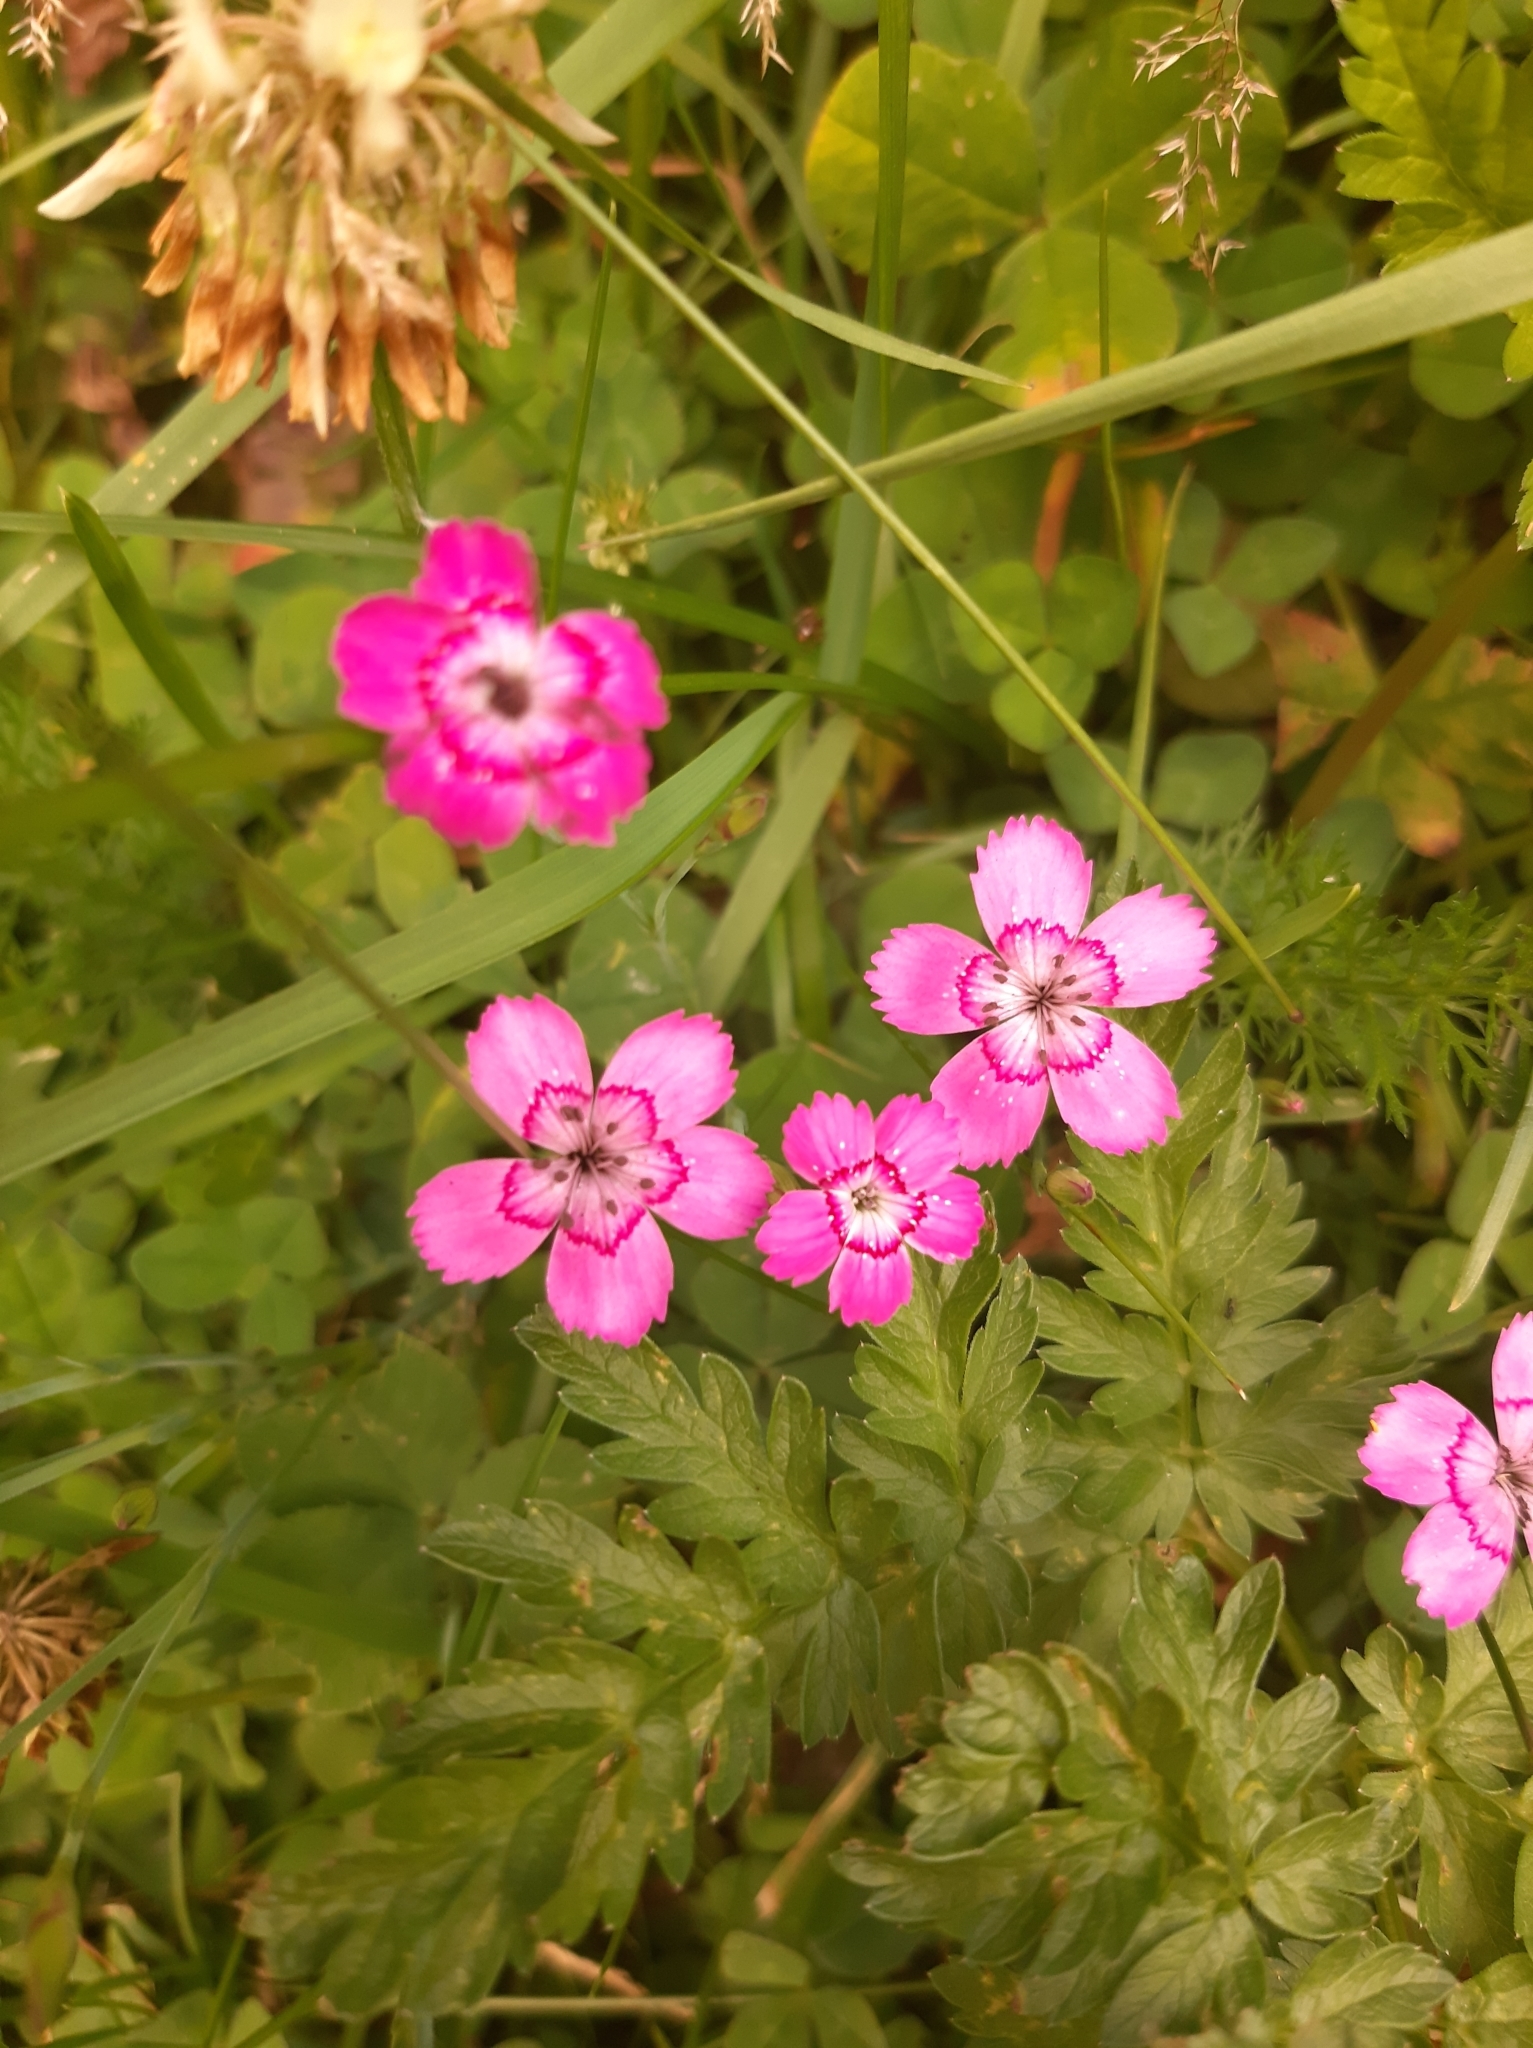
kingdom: Plantae
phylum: Tracheophyta
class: Magnoliopsida
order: Caryophyllales
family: Caryophyllaceae
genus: Dianthus
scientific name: Dianthus deltoides
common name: Maiden pink
